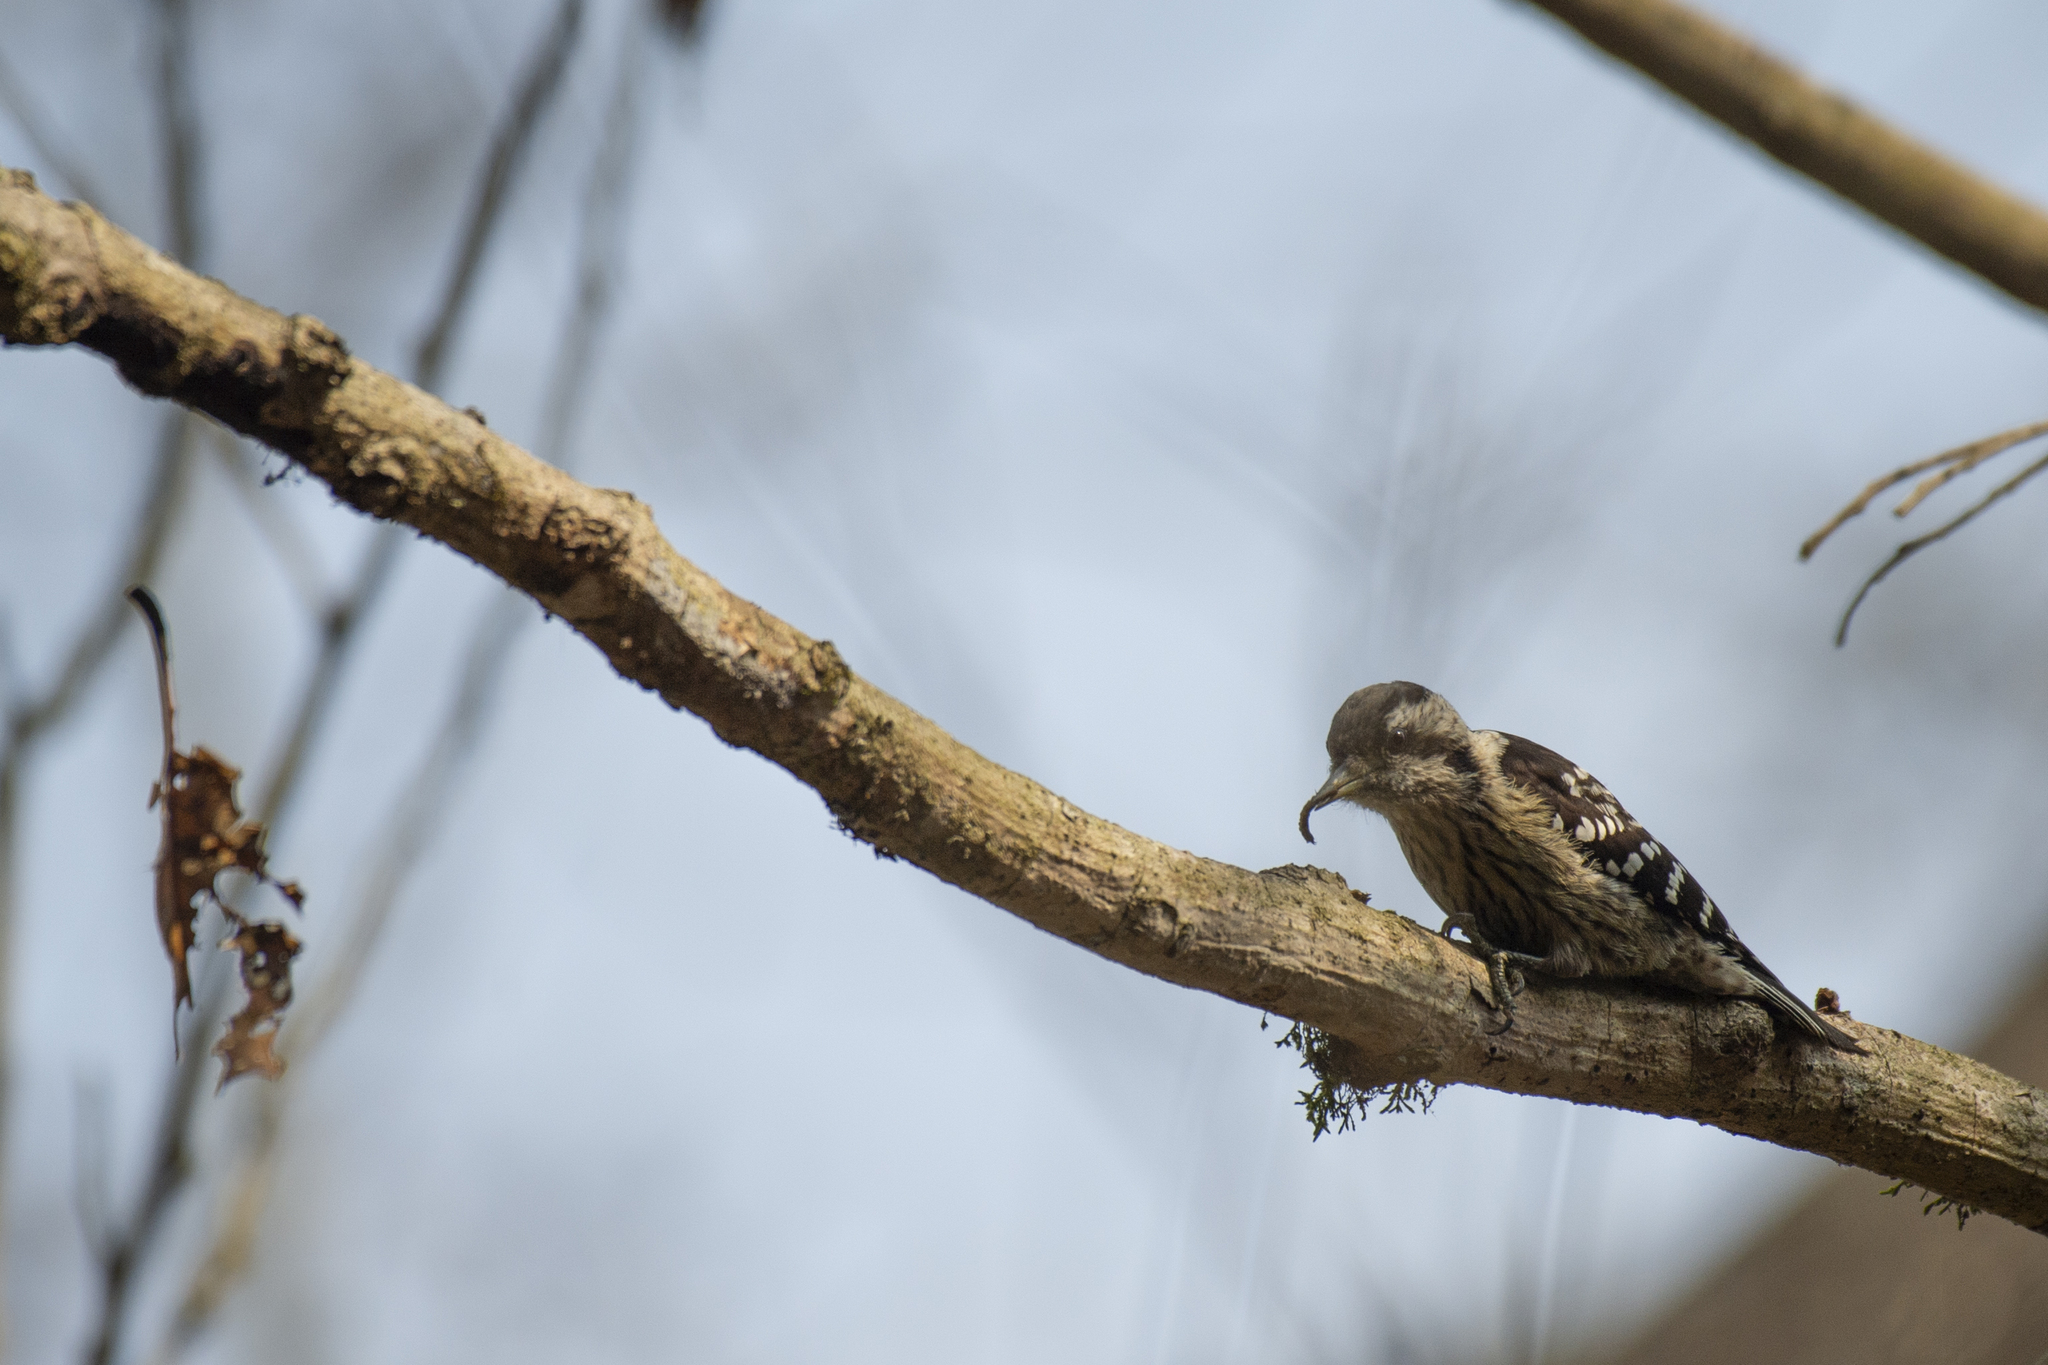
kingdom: Animalia
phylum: Chordata
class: Aves
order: Piciformes
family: Picidae
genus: Yungipicus
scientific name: Yungipicus canicapillus
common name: Grey-capped pygmy woodpecker
